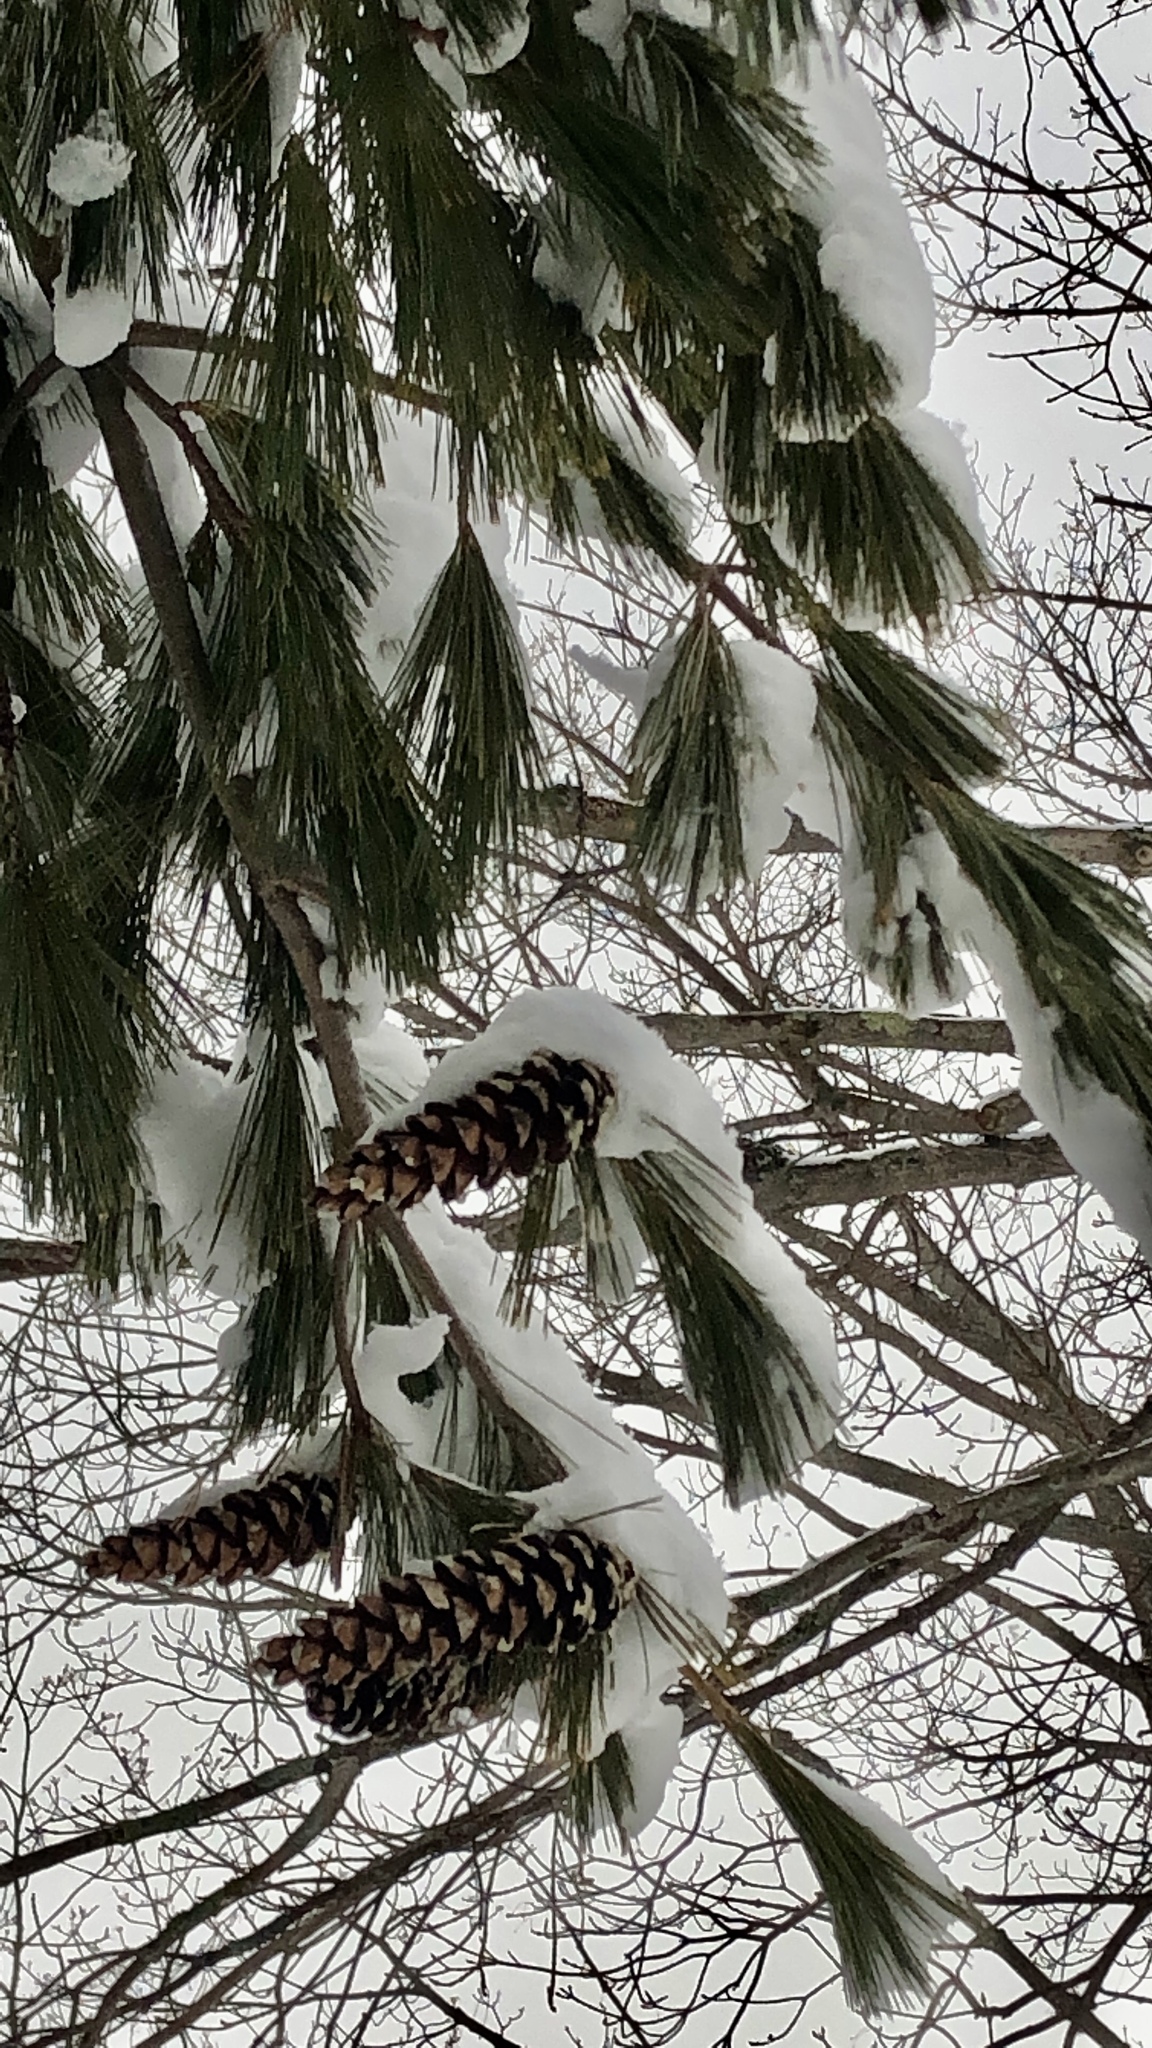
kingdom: Plantae
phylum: Tracheophyta
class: Pinopsida
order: Pinales
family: Pinaceae
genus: Pinus
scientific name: Pinus strobus
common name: Weymouth pine
